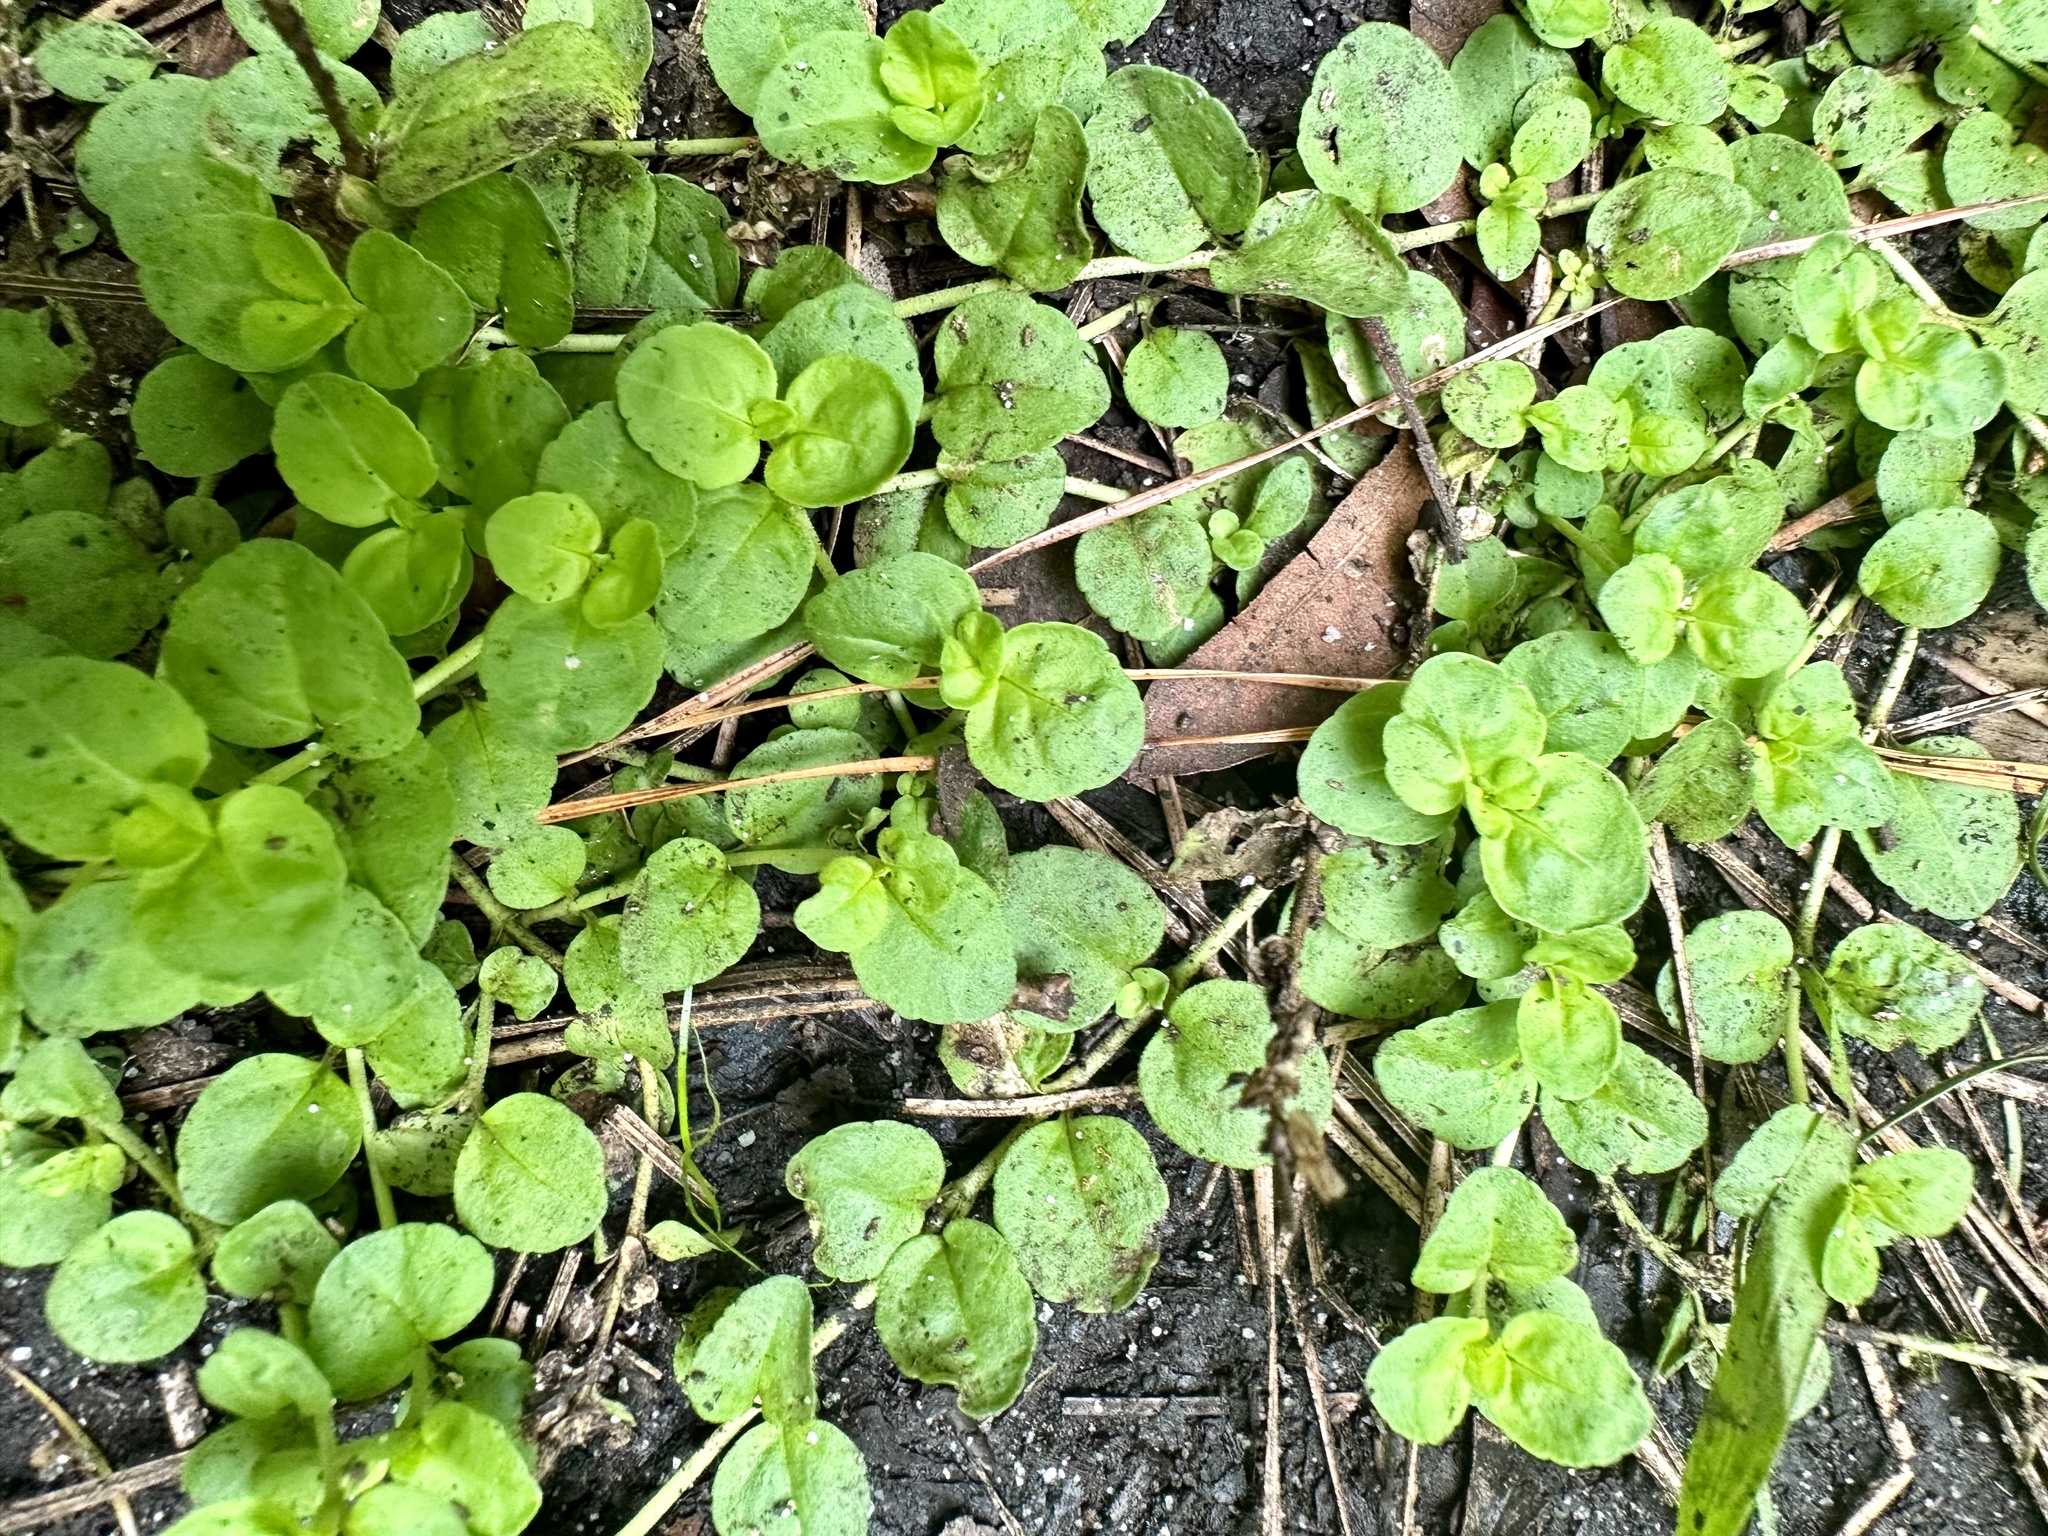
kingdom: Plantae
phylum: Tracheophyta
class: Magnoliopsida
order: Ericales
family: Primulaceae
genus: Lysimachia
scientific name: Lysimachia nummularia
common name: Moneywort
